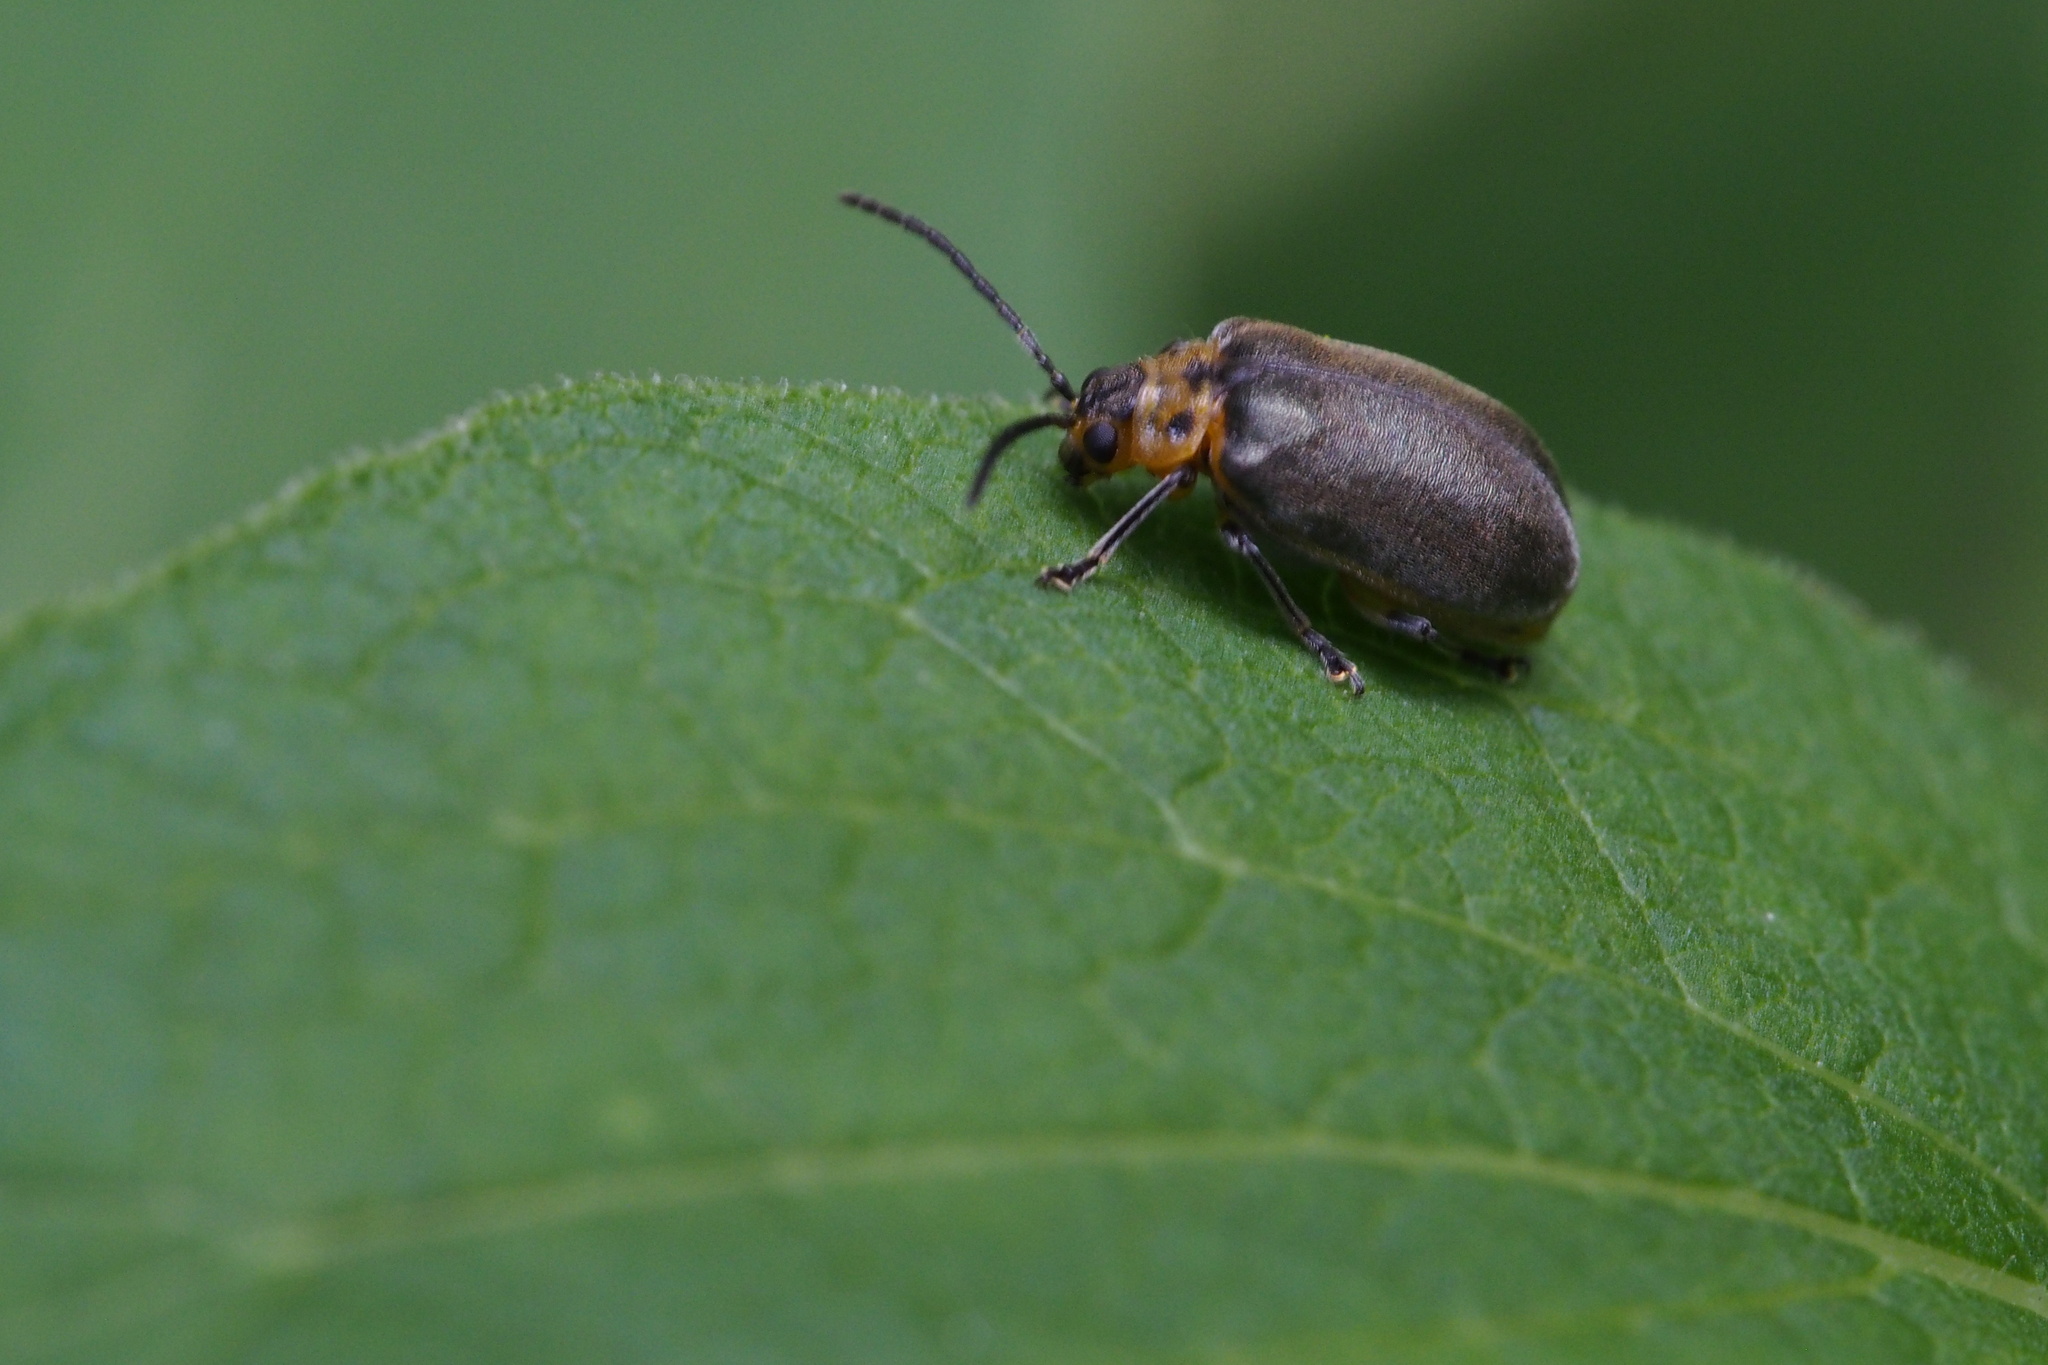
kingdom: Animalia
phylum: Arthropoda
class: Insecta
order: Coleoptera
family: Chrysomelidae
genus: Pyrrhalta
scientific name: Pyrrhalta
